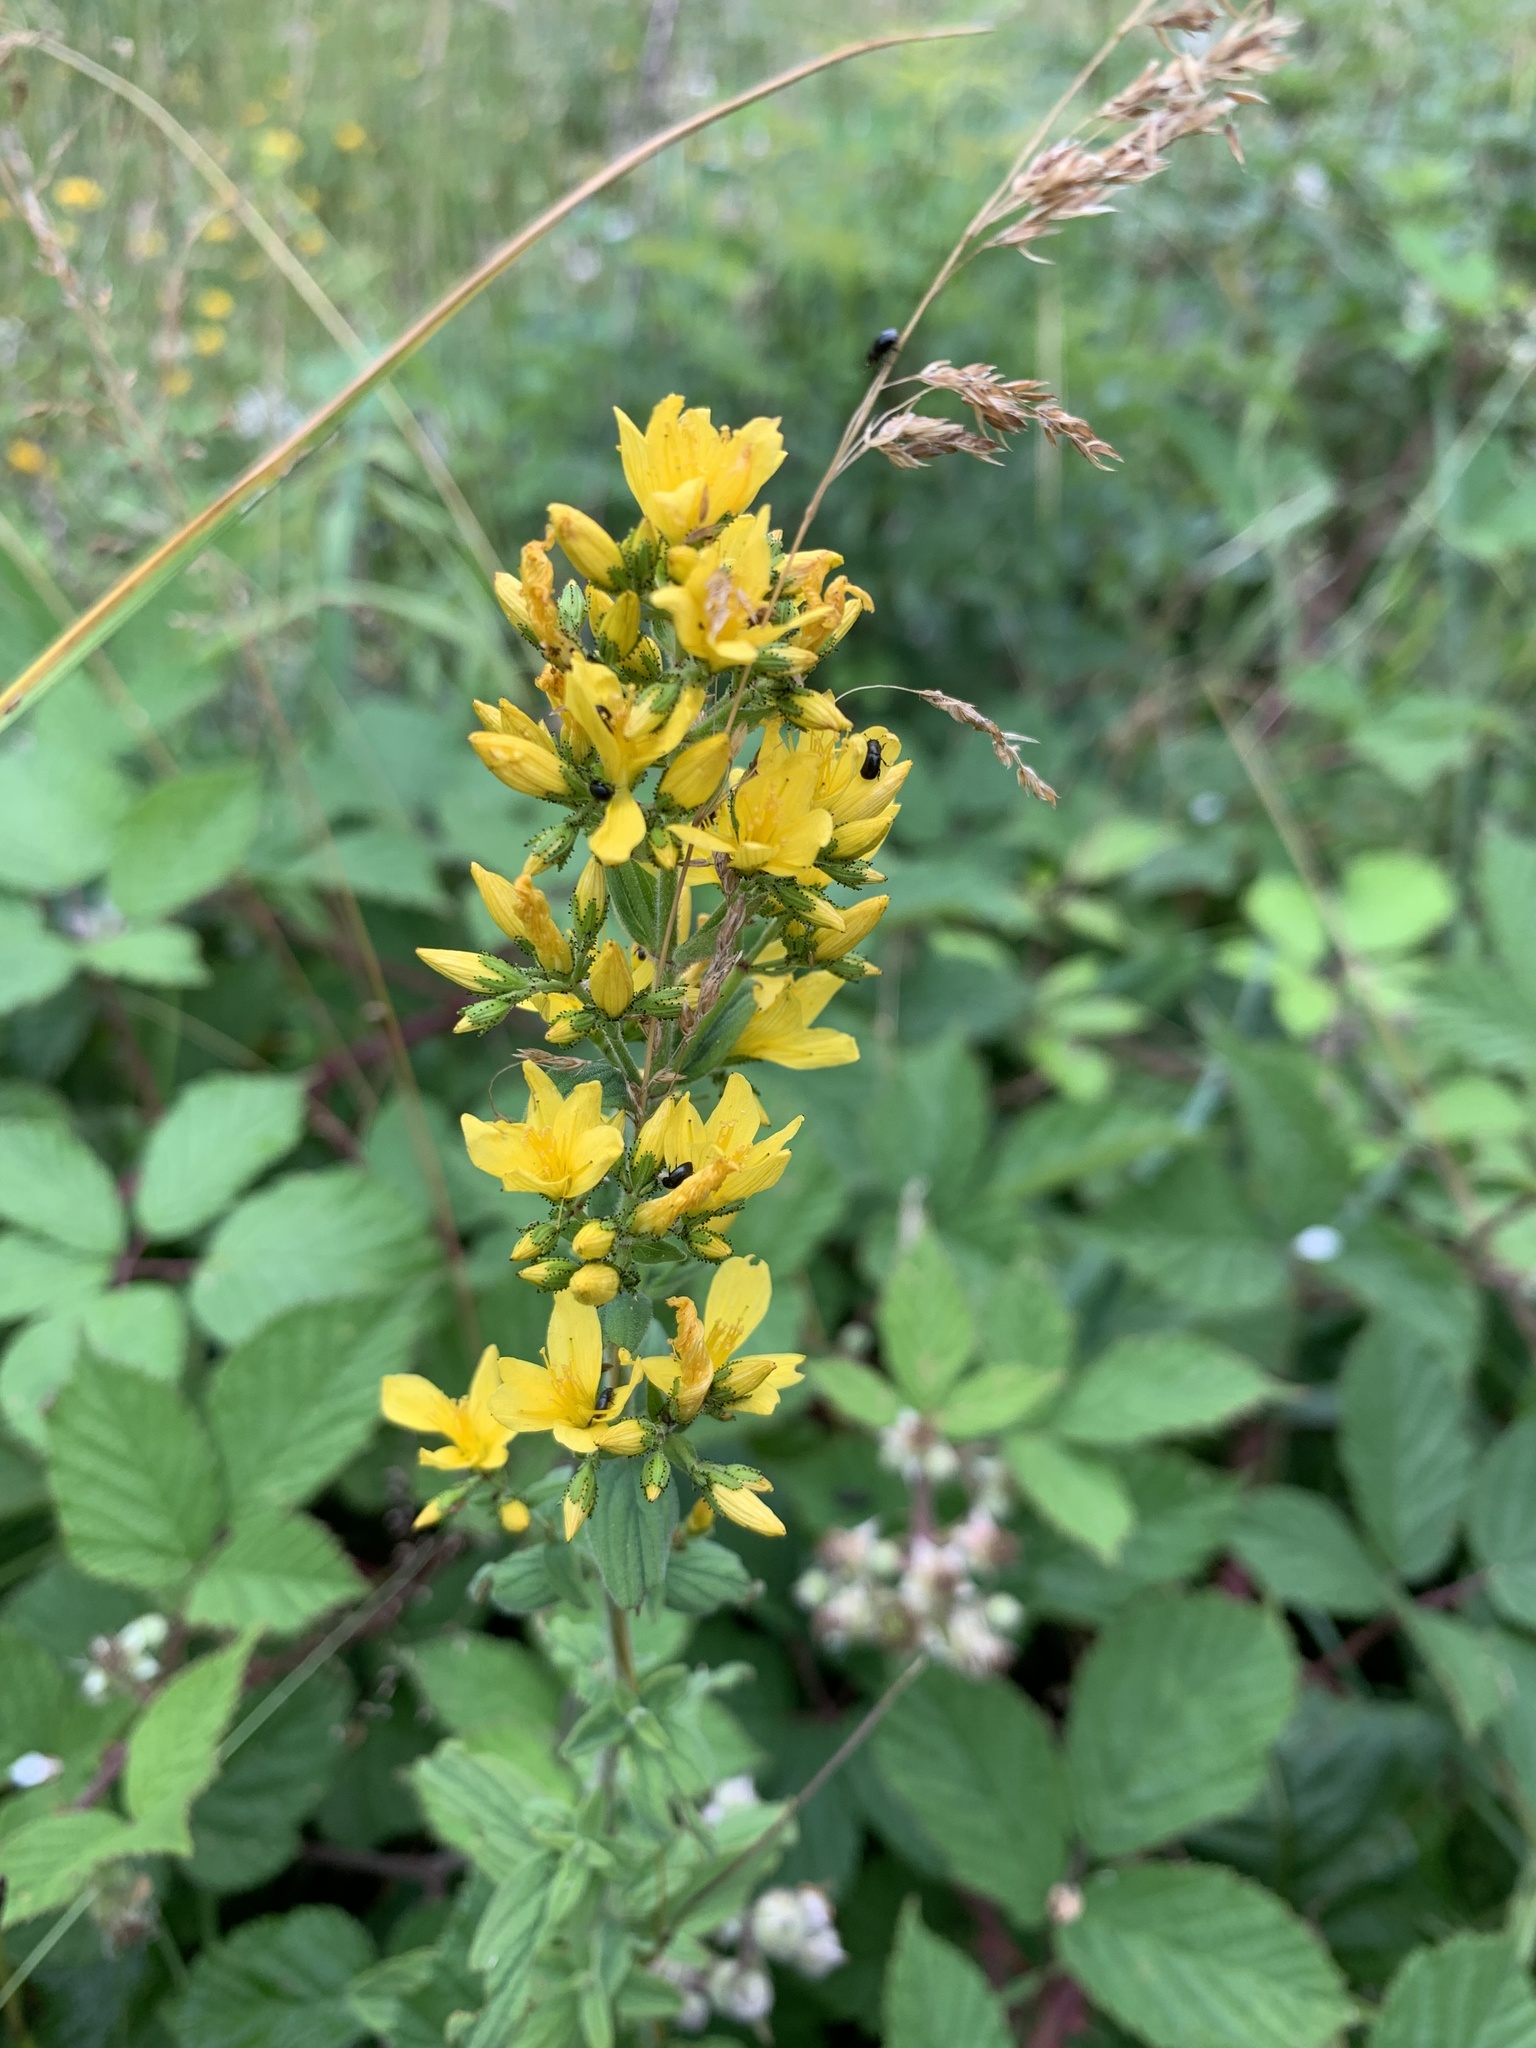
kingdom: Plantae
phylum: Tracheophyta
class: Magnoliopsida
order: Malpighiales
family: Hypericaceae
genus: Hypericum
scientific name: Hypericum hirsutum
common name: Hairy st. john's-wort
